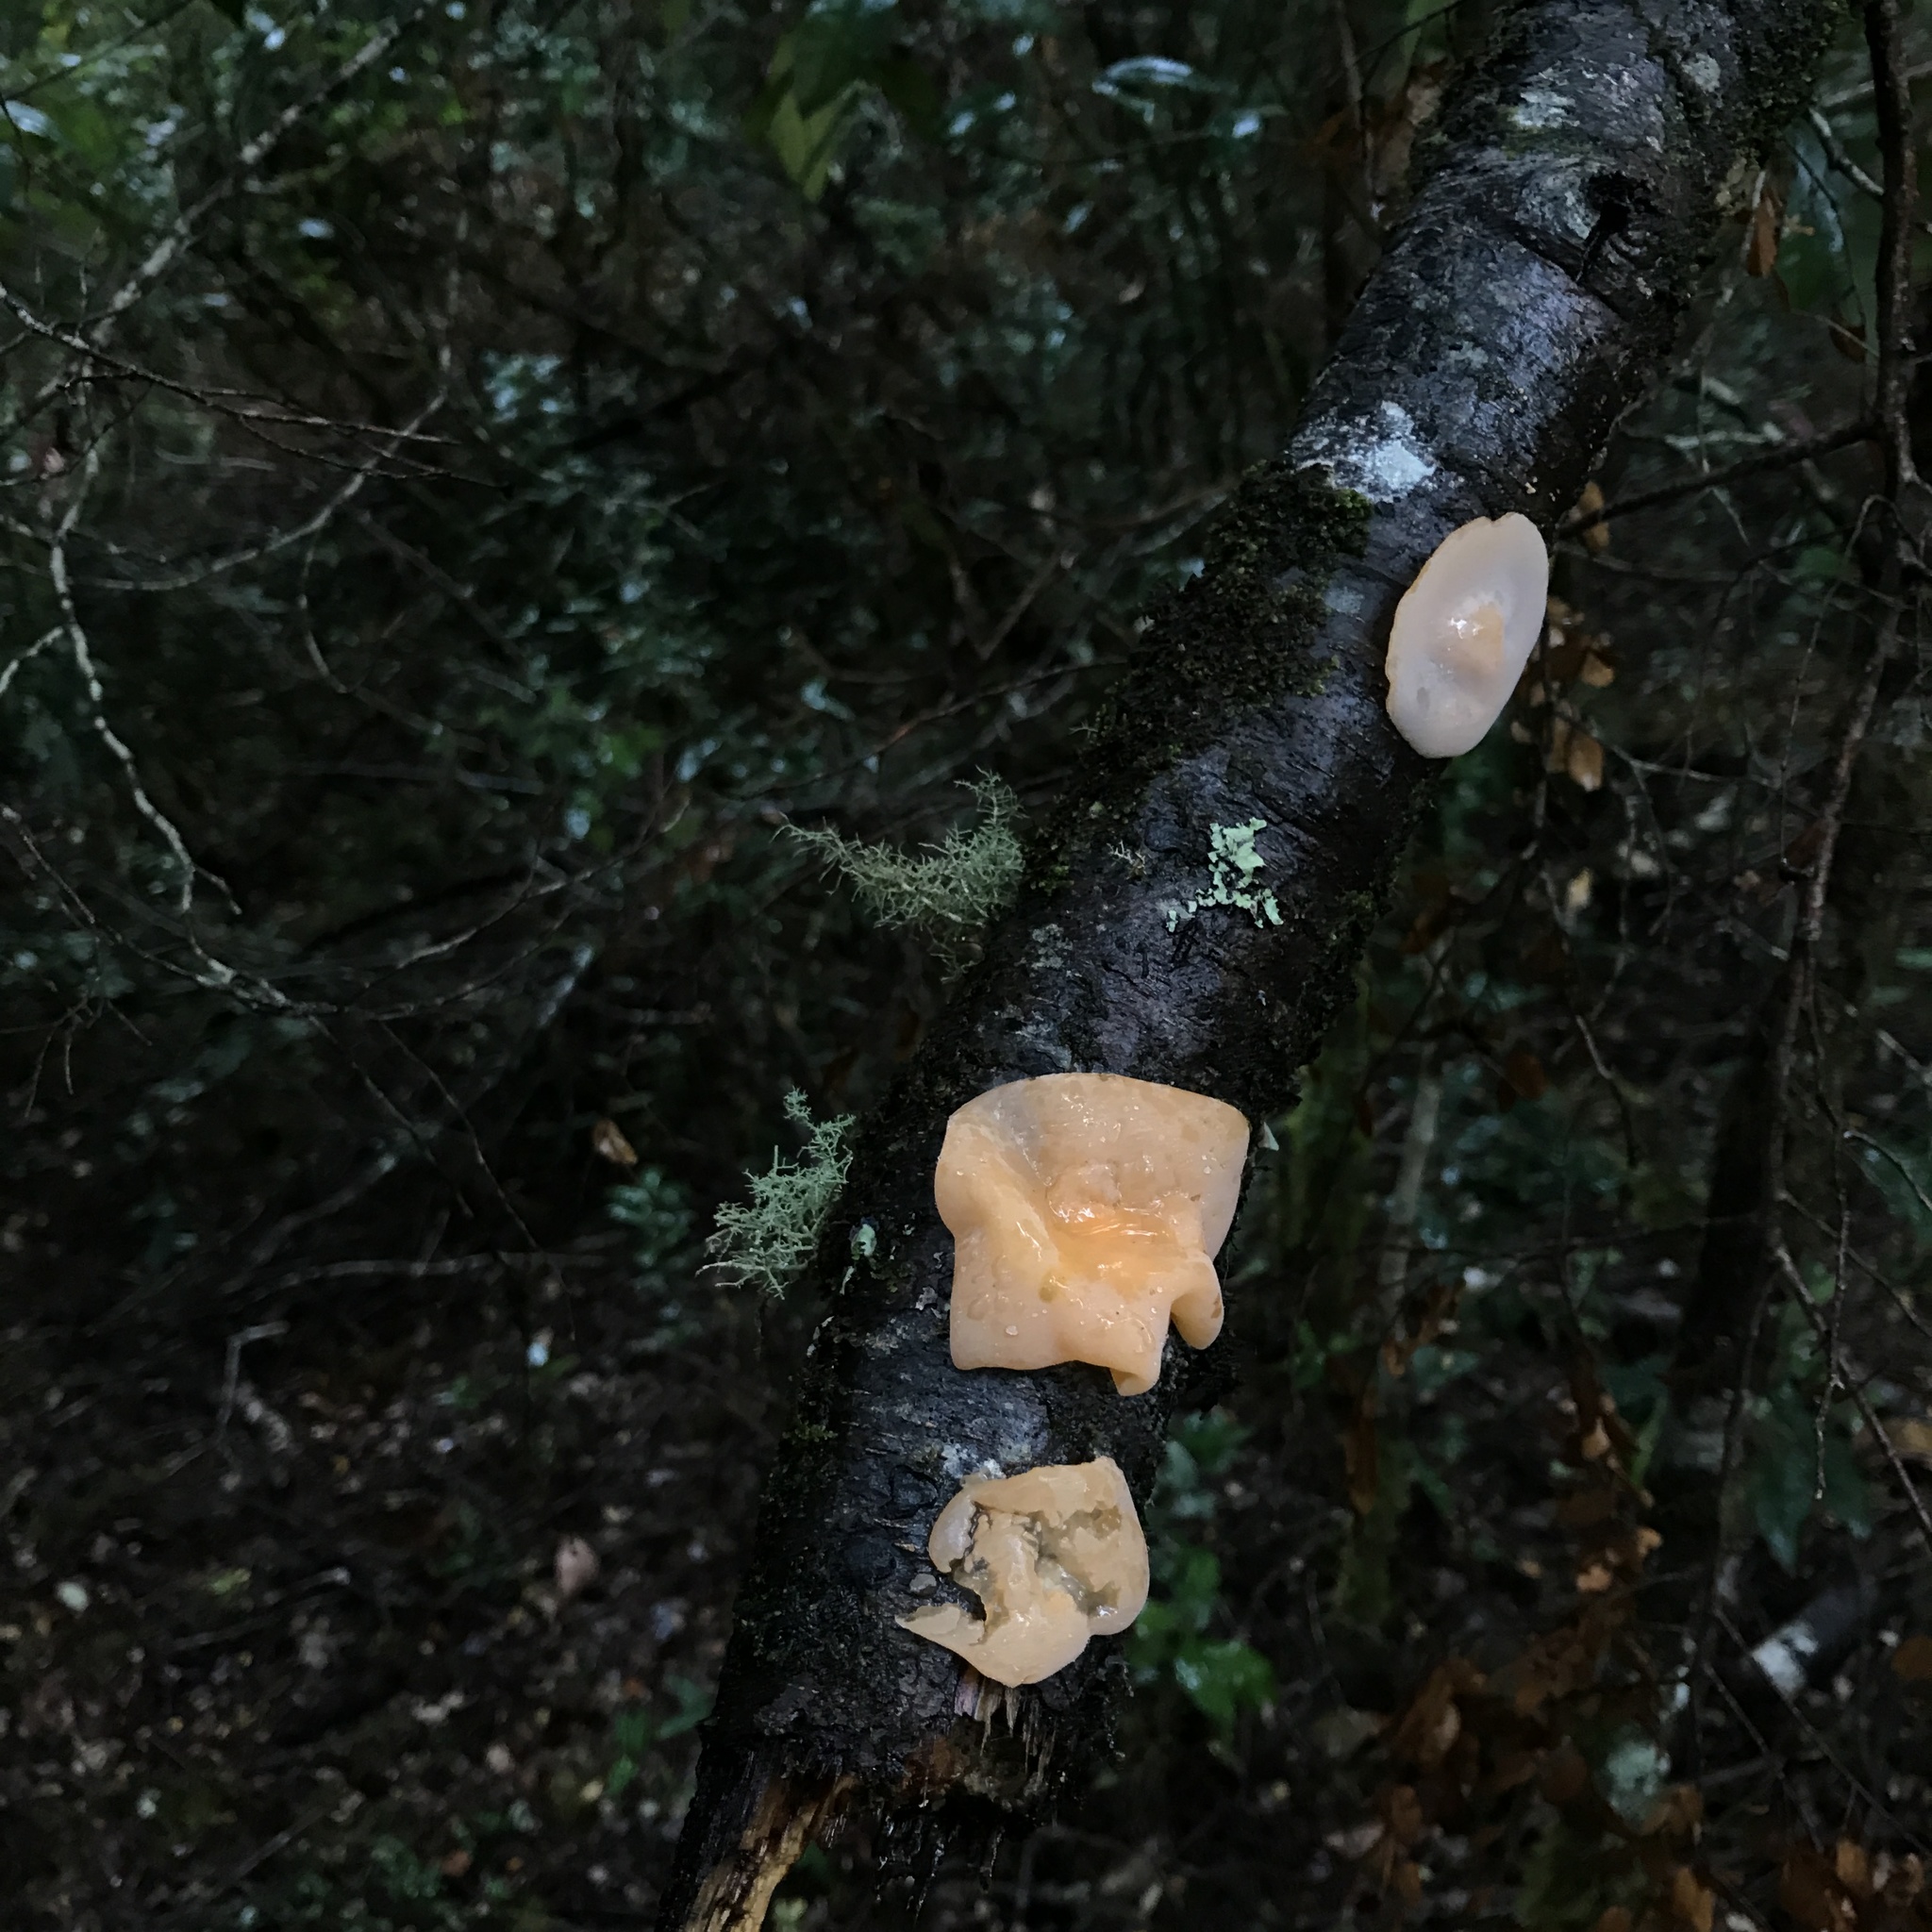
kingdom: Fungi
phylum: Basidiomycota
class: Agaricomycetes
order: Russulales
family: Stereaceae
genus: Aleurodiscus
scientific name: Aleurodiscus vitellinus
